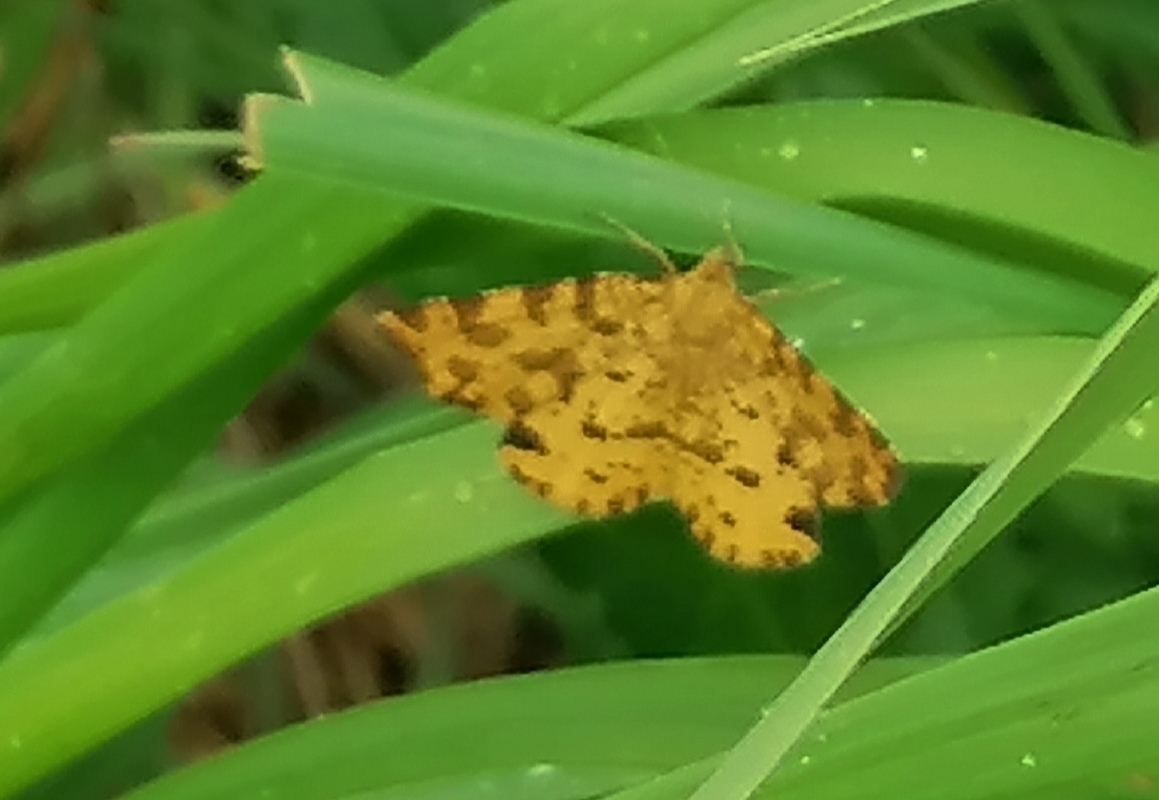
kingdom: Animalia
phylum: Arthropoda
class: Insecta
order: Lepidoptera
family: Geometridae
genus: Pseudopanthera
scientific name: Pseudopanthera macularia
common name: Speckled yellow
